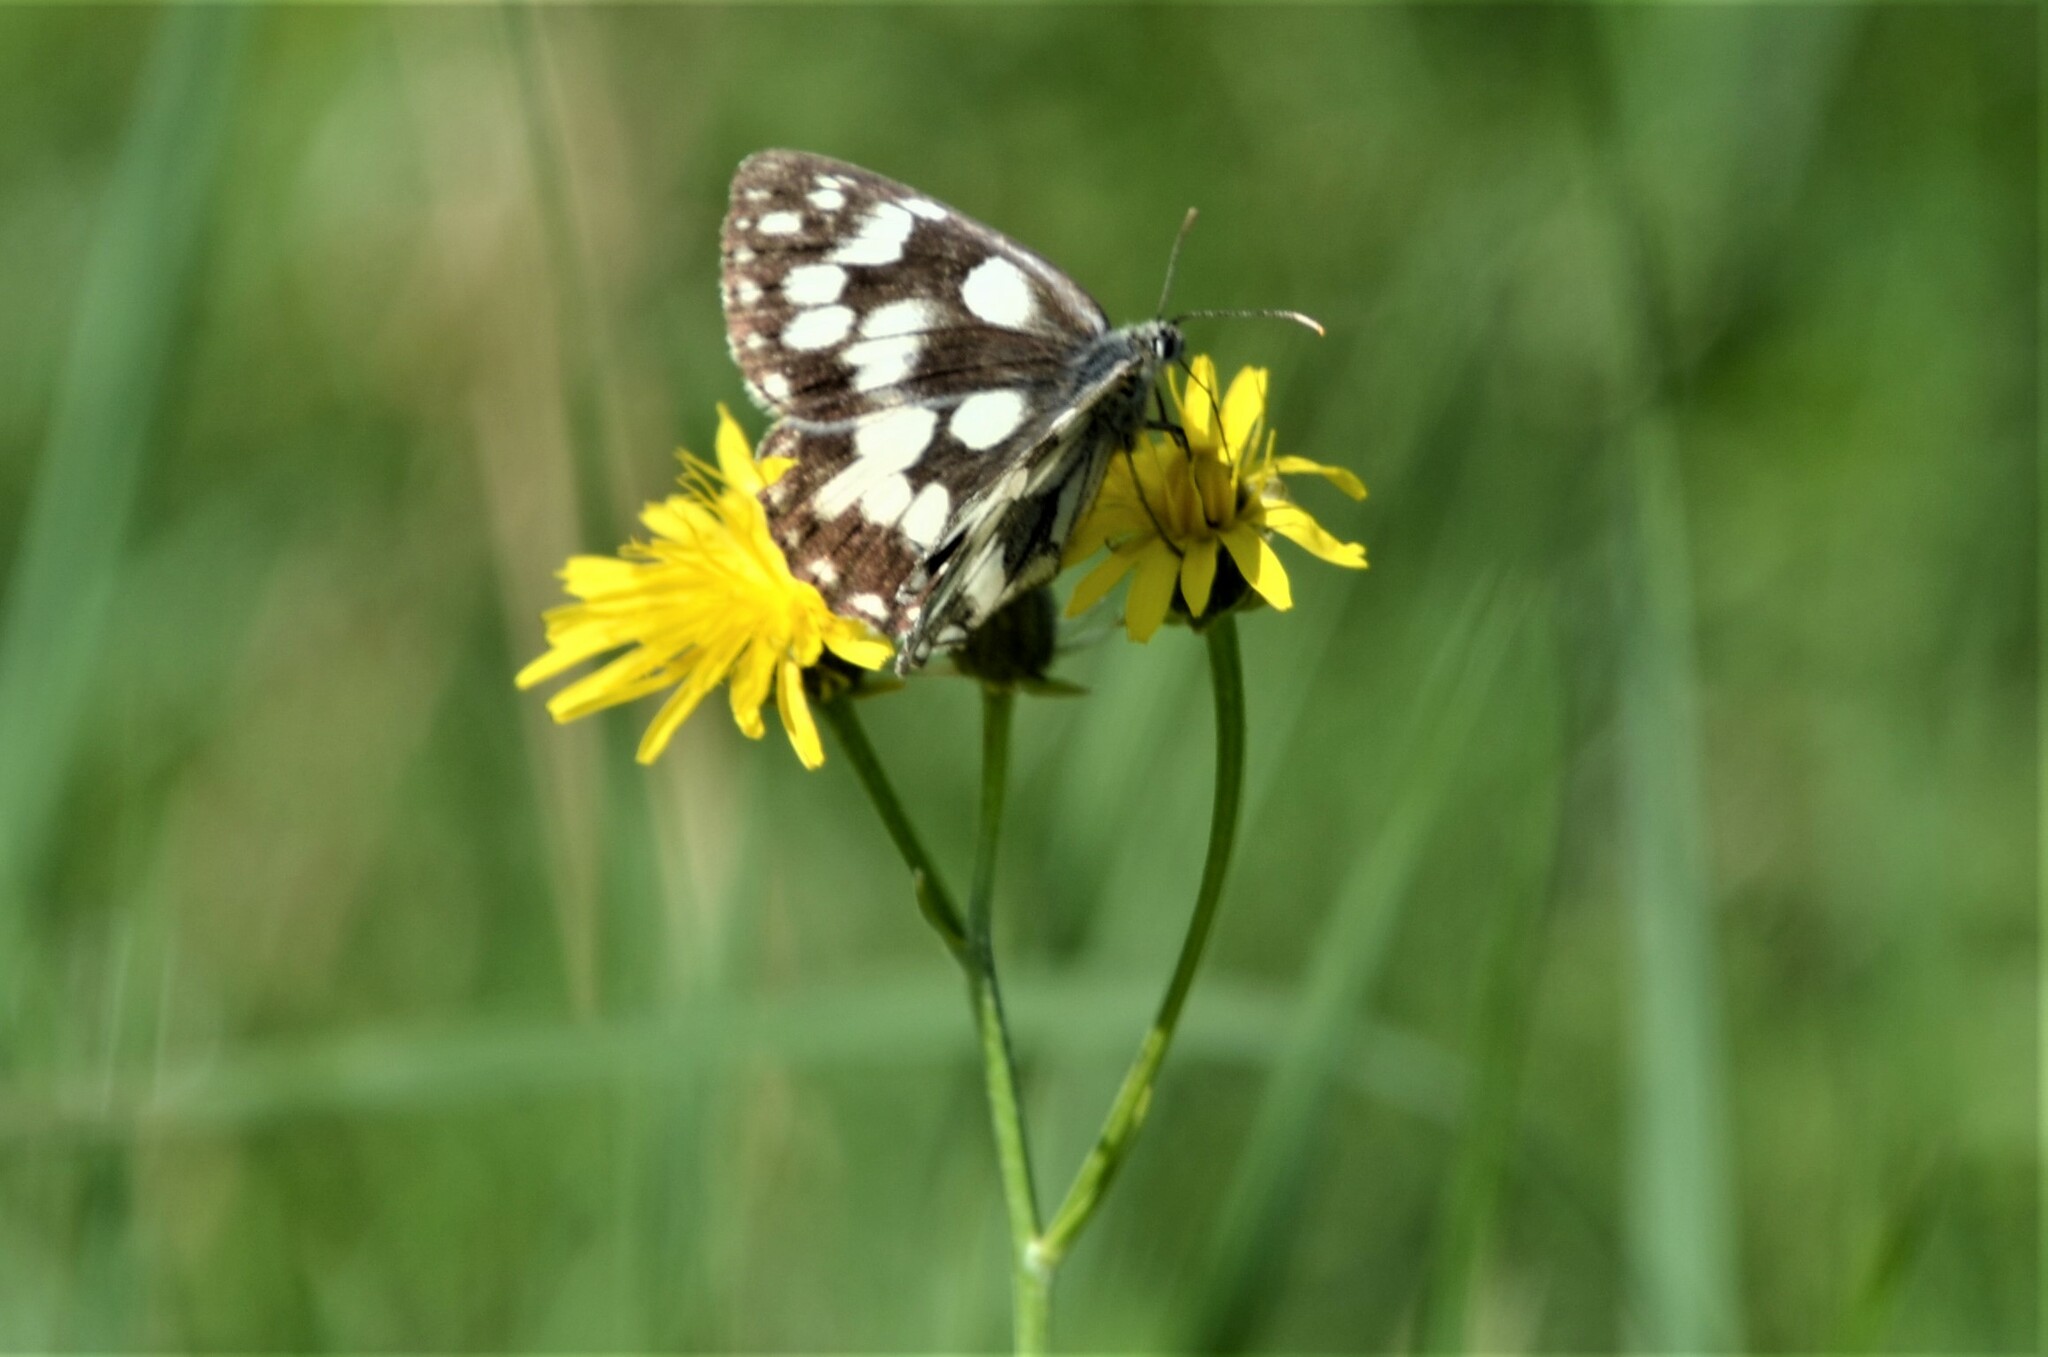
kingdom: Animalia
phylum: Arthropoda
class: Insecta
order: Lepidoptera
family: Nymphalidae
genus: Melanargia
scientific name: Melanargia galathea
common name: Marbled white
